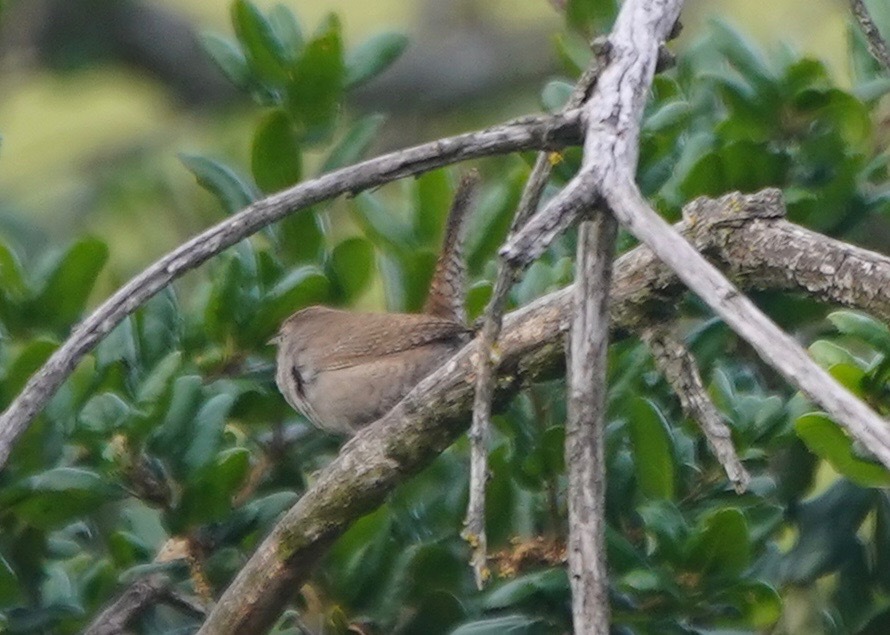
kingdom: Animalia
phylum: Chordata
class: Aves
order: Passeriformes
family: Troglodytidae
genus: Troglodytes
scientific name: Troglodytes aedon
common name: House wren
